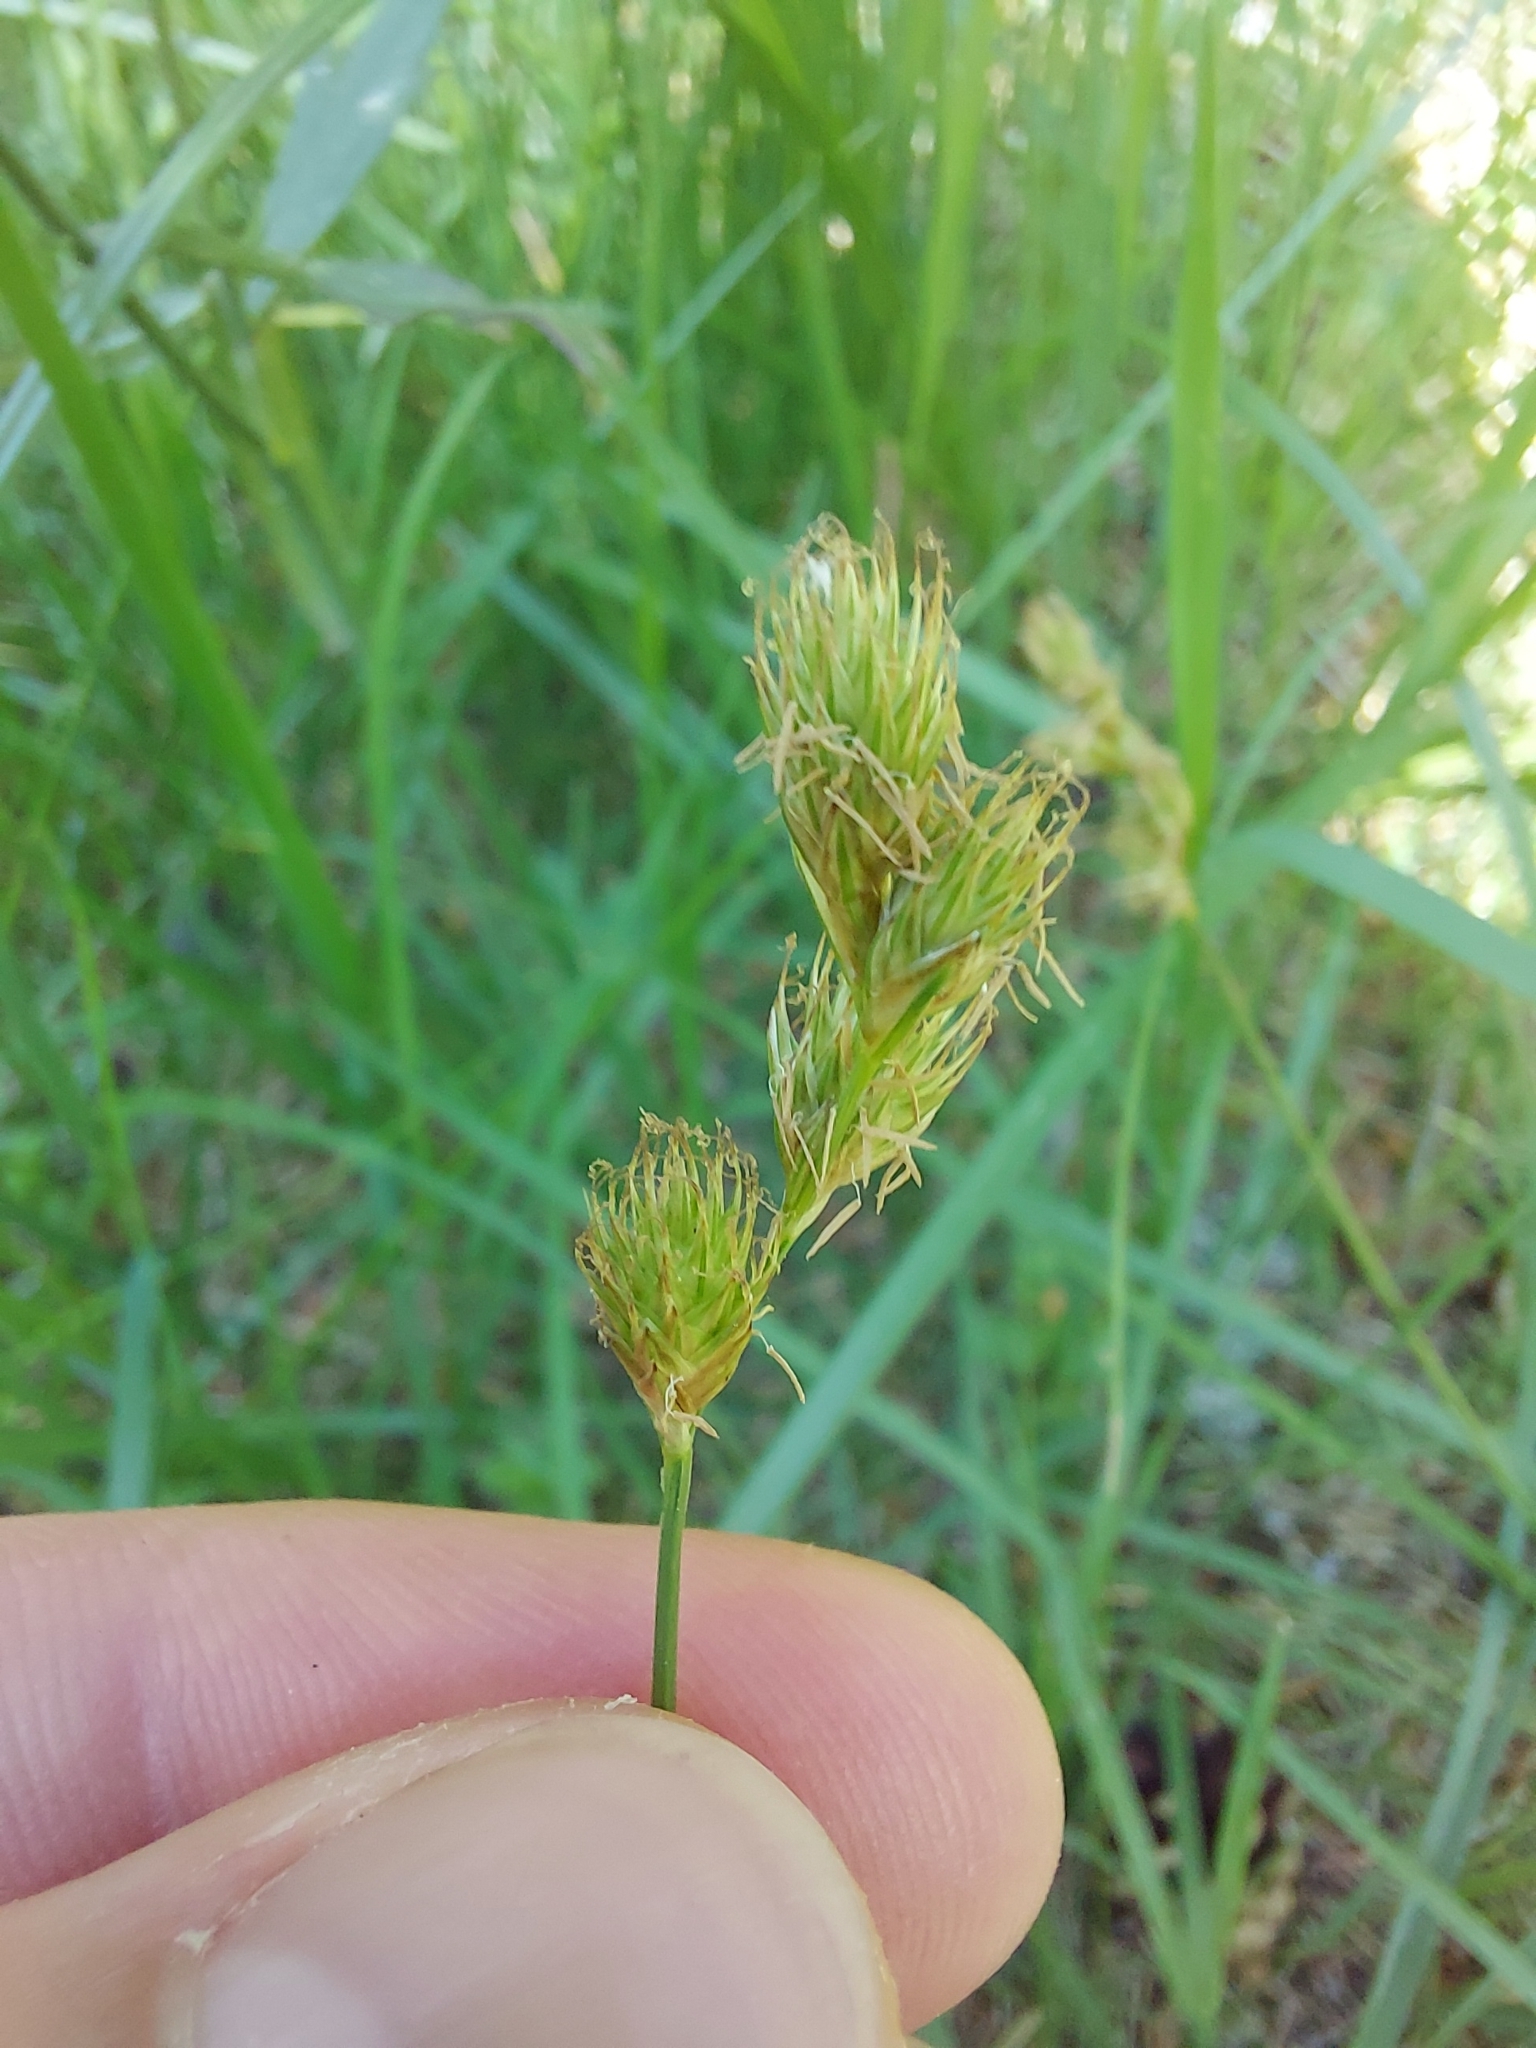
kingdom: Plantae
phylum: Tracheophyta
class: Liliopsida
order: Poales
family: Cyperaceae
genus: Carex
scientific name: Carex leporina
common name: Oval sedge
